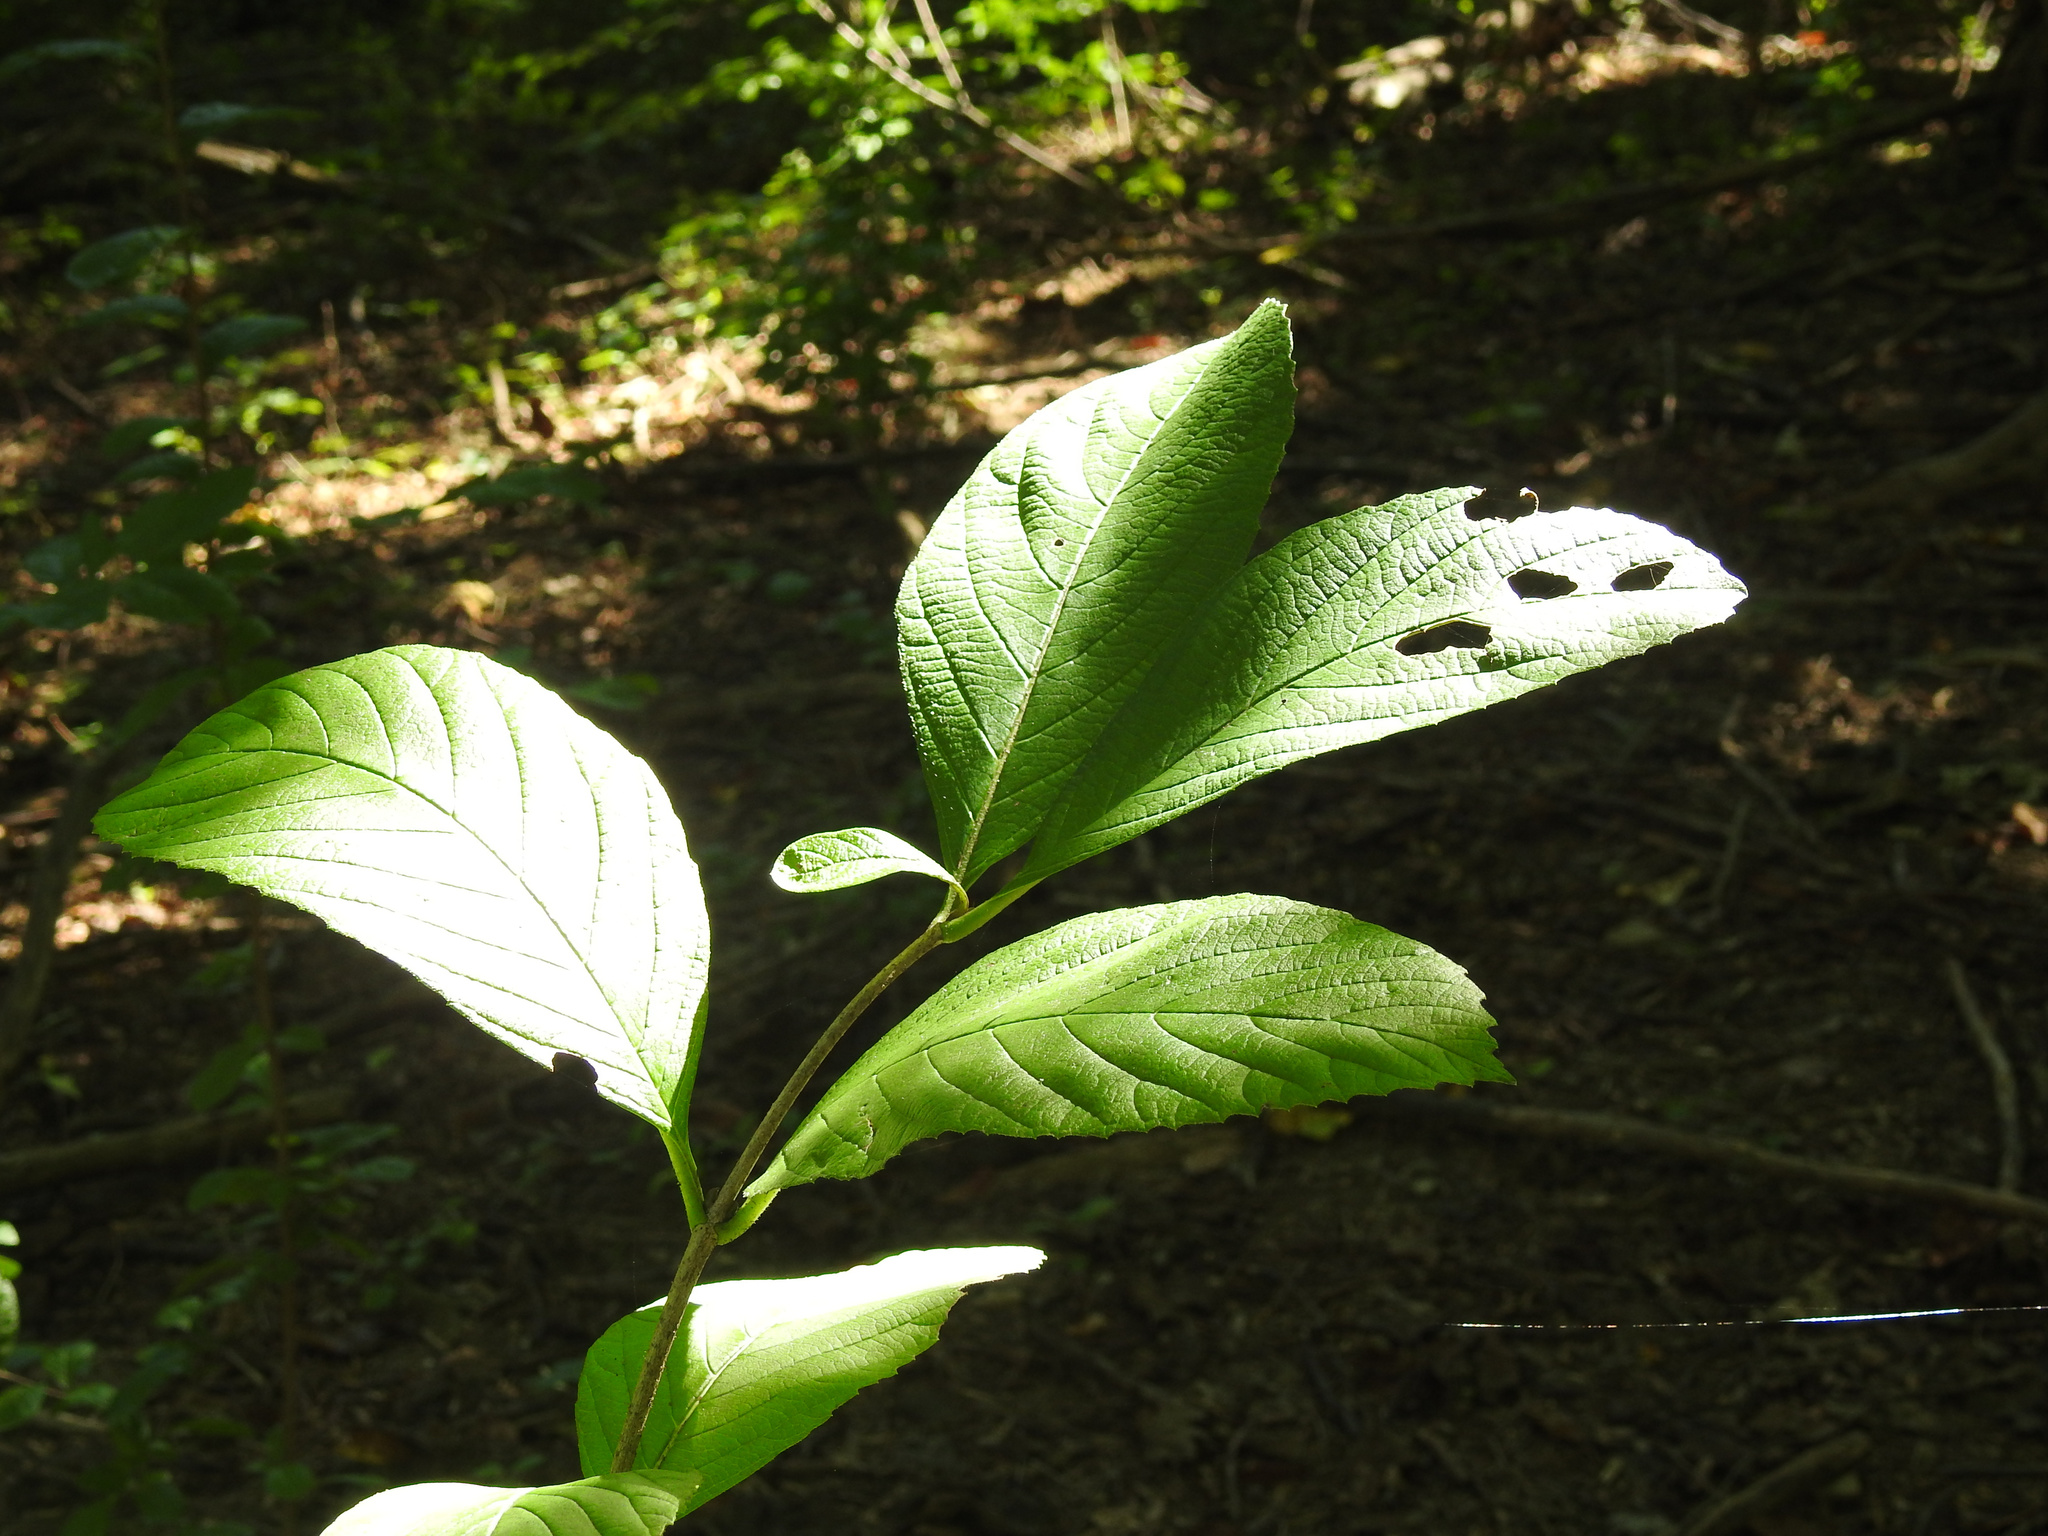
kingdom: Plantae
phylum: Tracheophyta
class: Magnoliopsida
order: Dipsacales
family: Viburnaceae
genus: Viburnum
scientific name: Viburnum sieboldii
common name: Siebold's arrowwood
